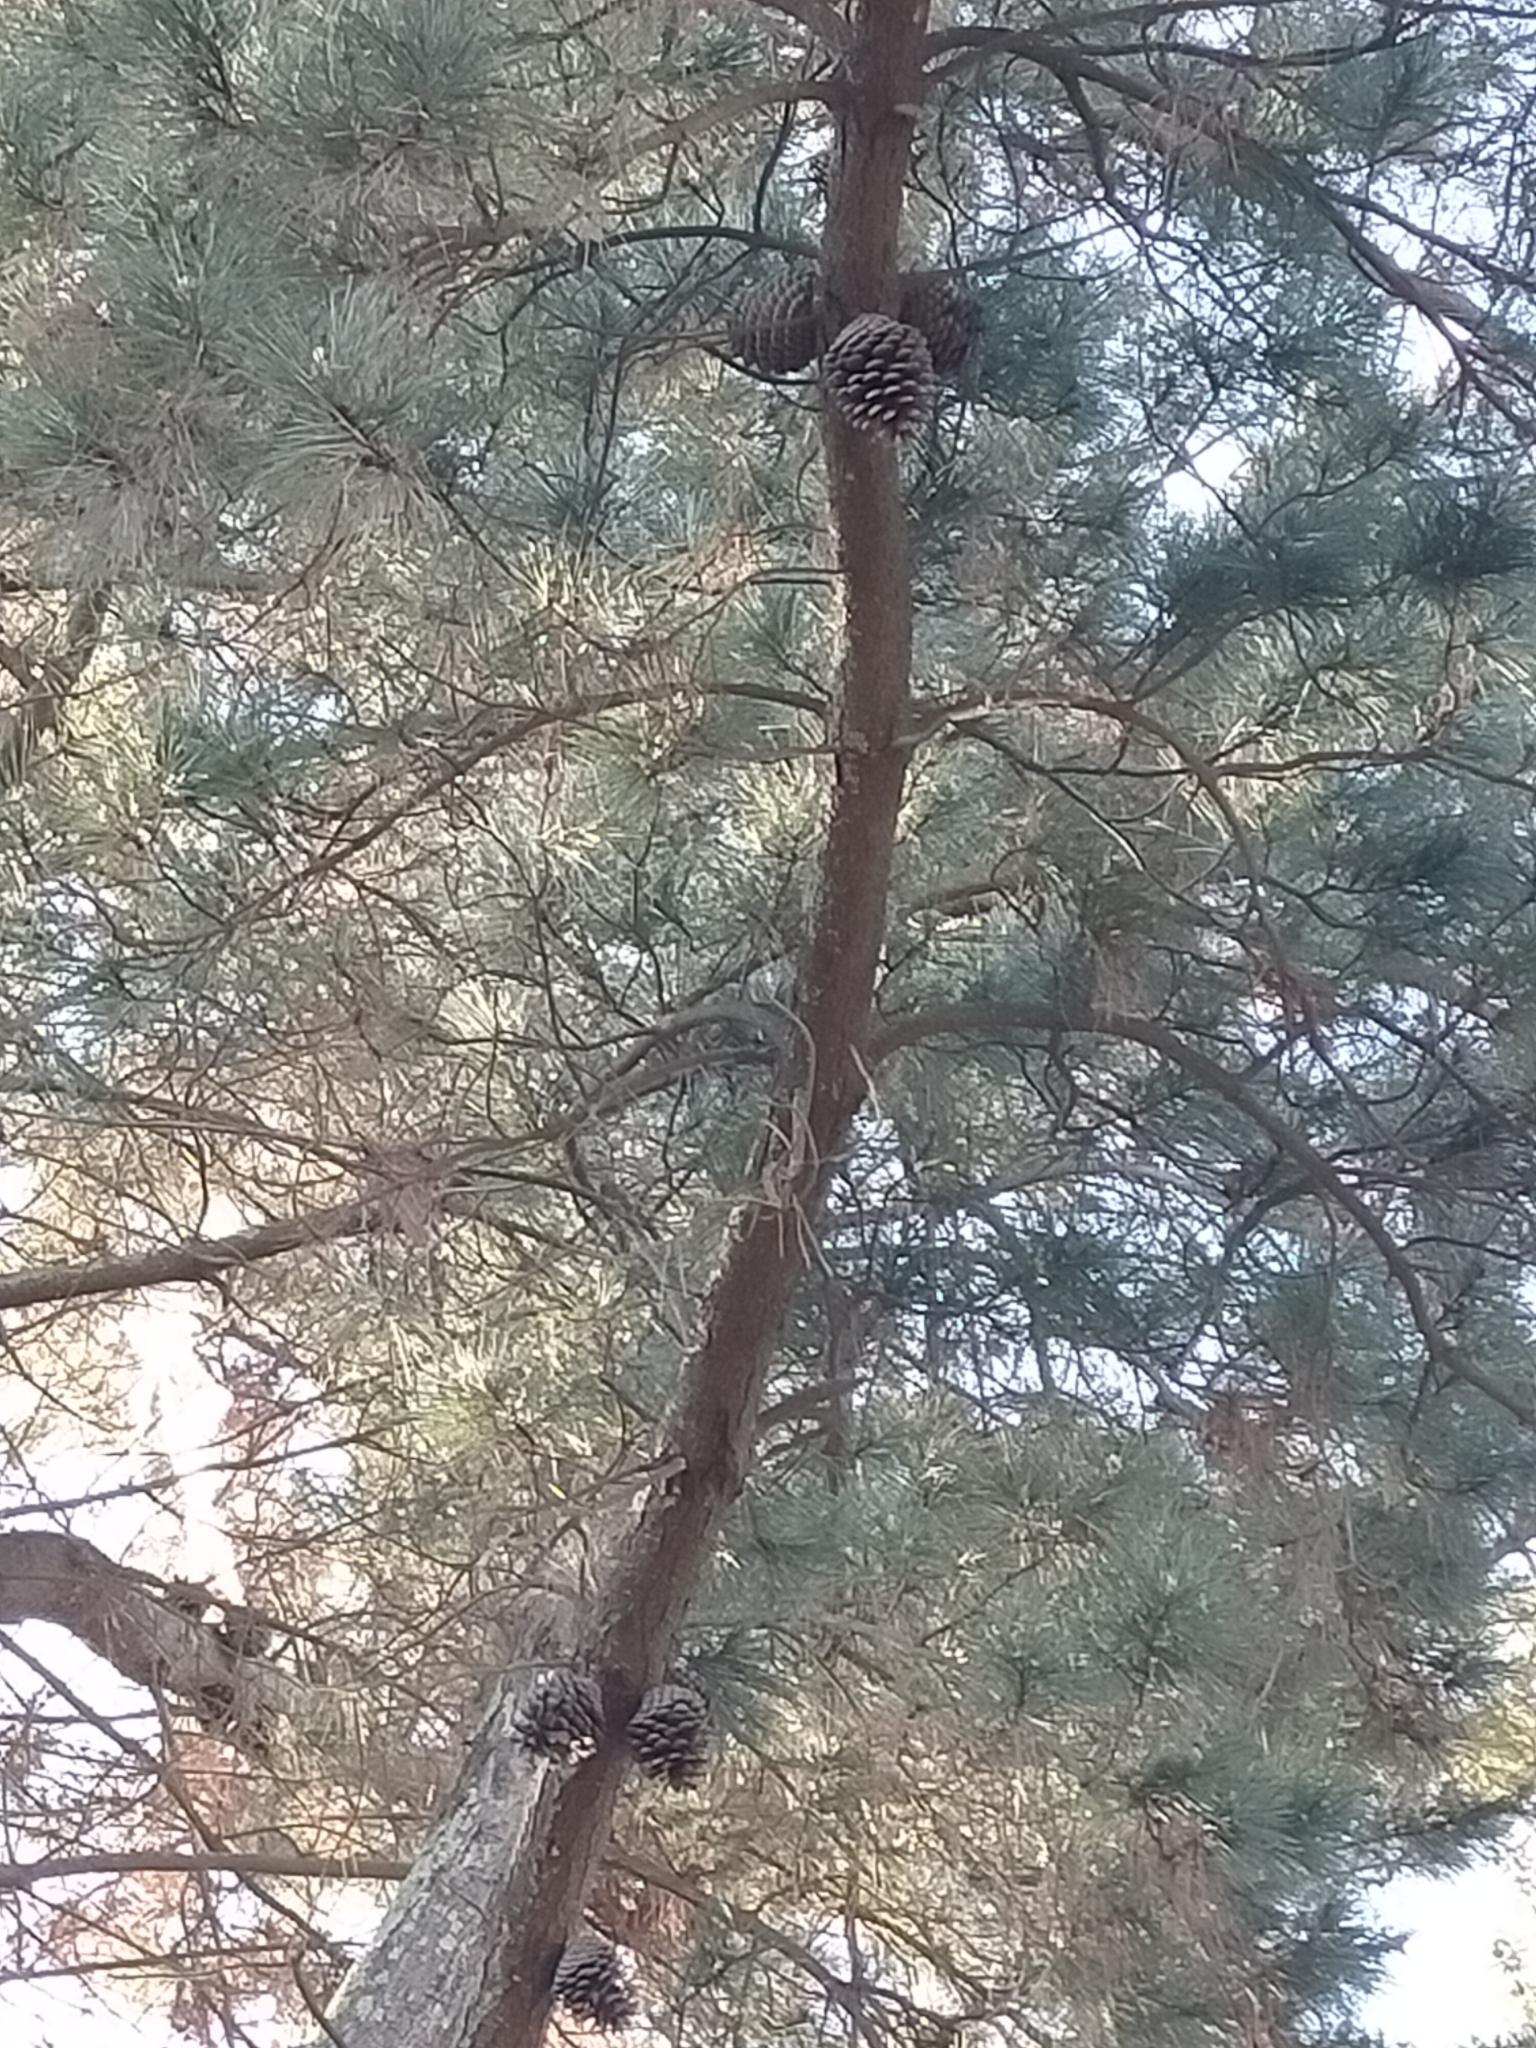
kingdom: Plantae
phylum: Tracheophyta
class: Pinopsida
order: Pinales
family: Pinaceae
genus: Pinus
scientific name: Pinus radiata
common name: Monterey pine
